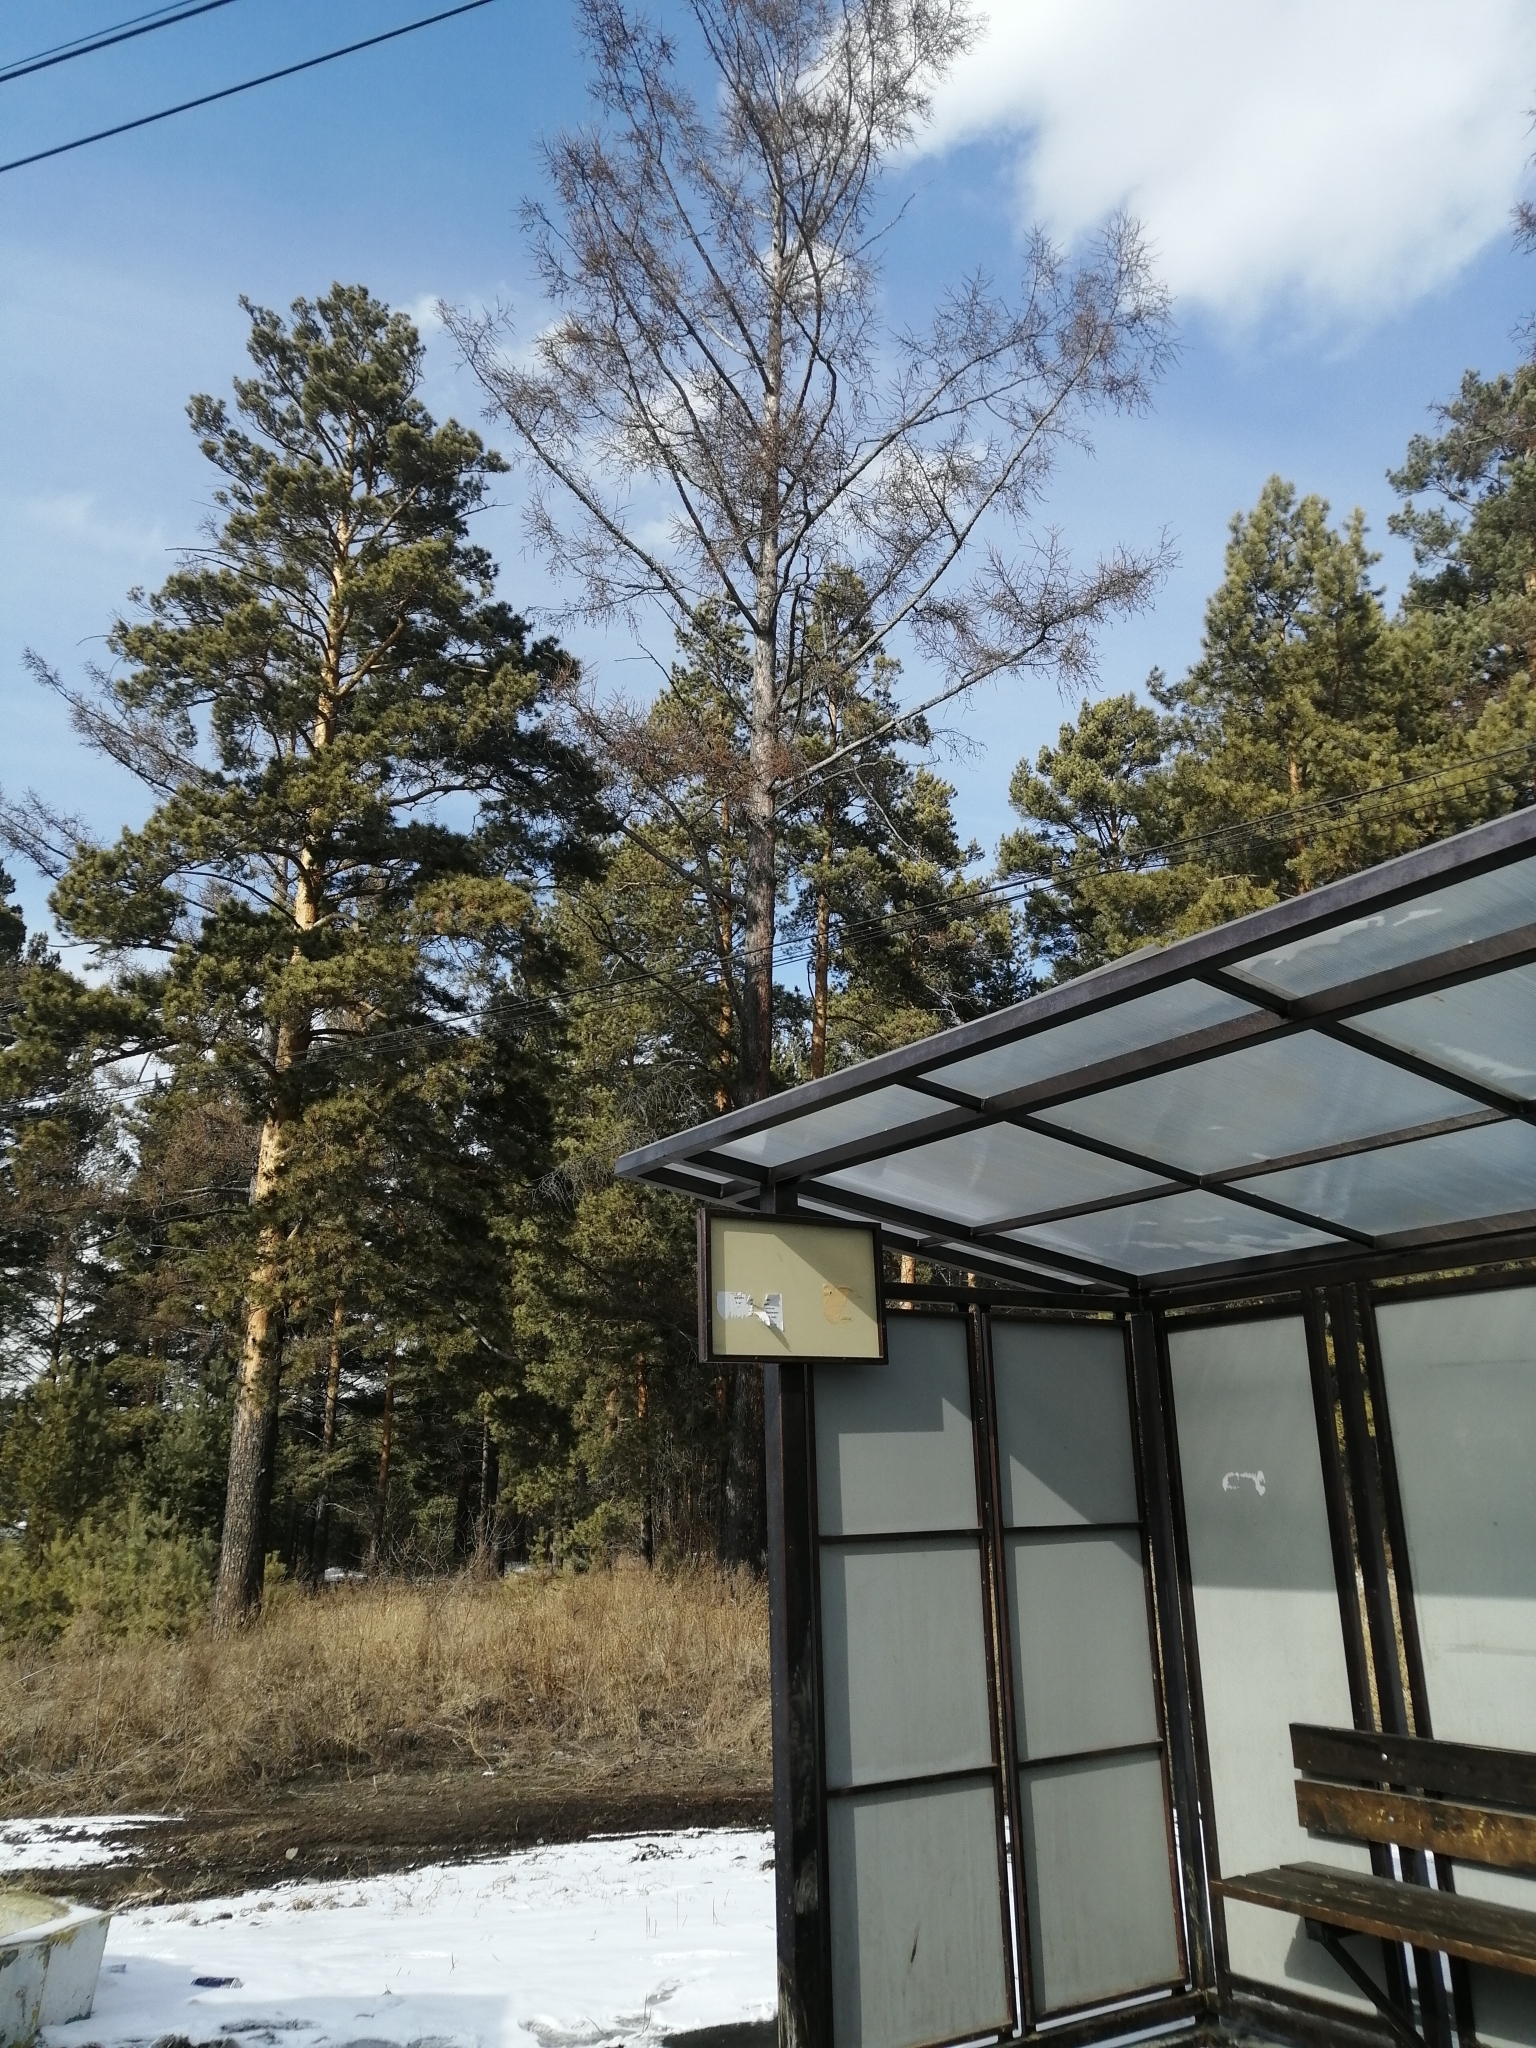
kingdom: Plantae
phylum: Tracheophyta
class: Pinopsida
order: Pinales
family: Pinaceae
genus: Larix
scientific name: Larix sibirica
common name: Siberian larch
